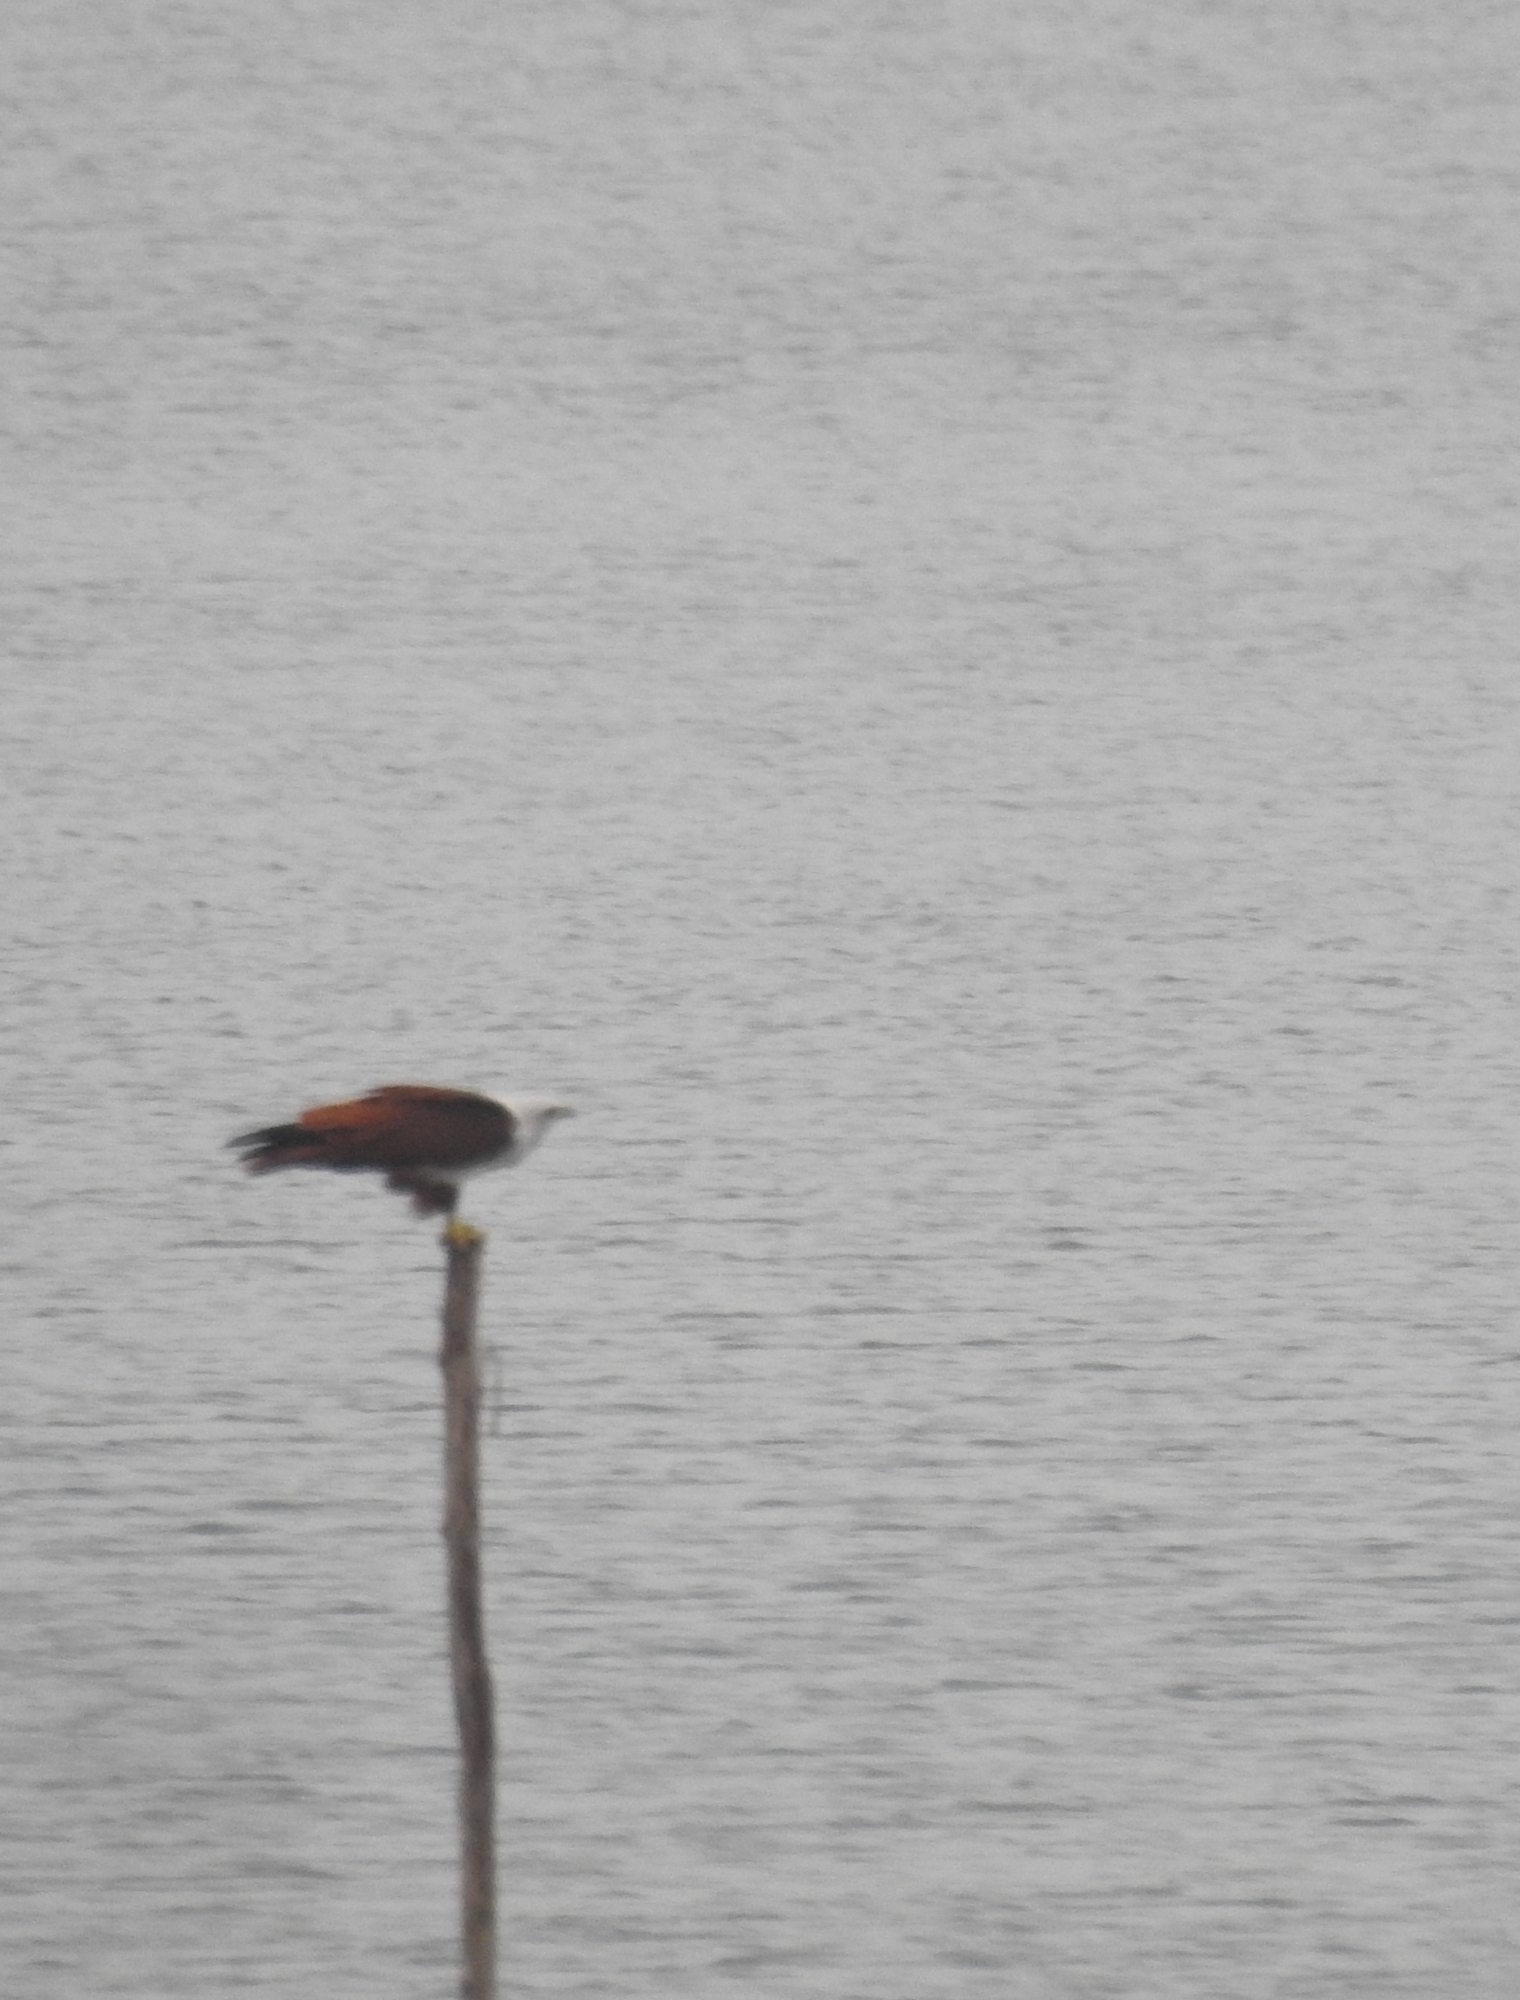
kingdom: Animalia
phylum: Chordata
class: Aves
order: Accipitriformes
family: Accipitridae
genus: Haliastur
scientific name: Haliastur indus
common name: Brahminy kite
